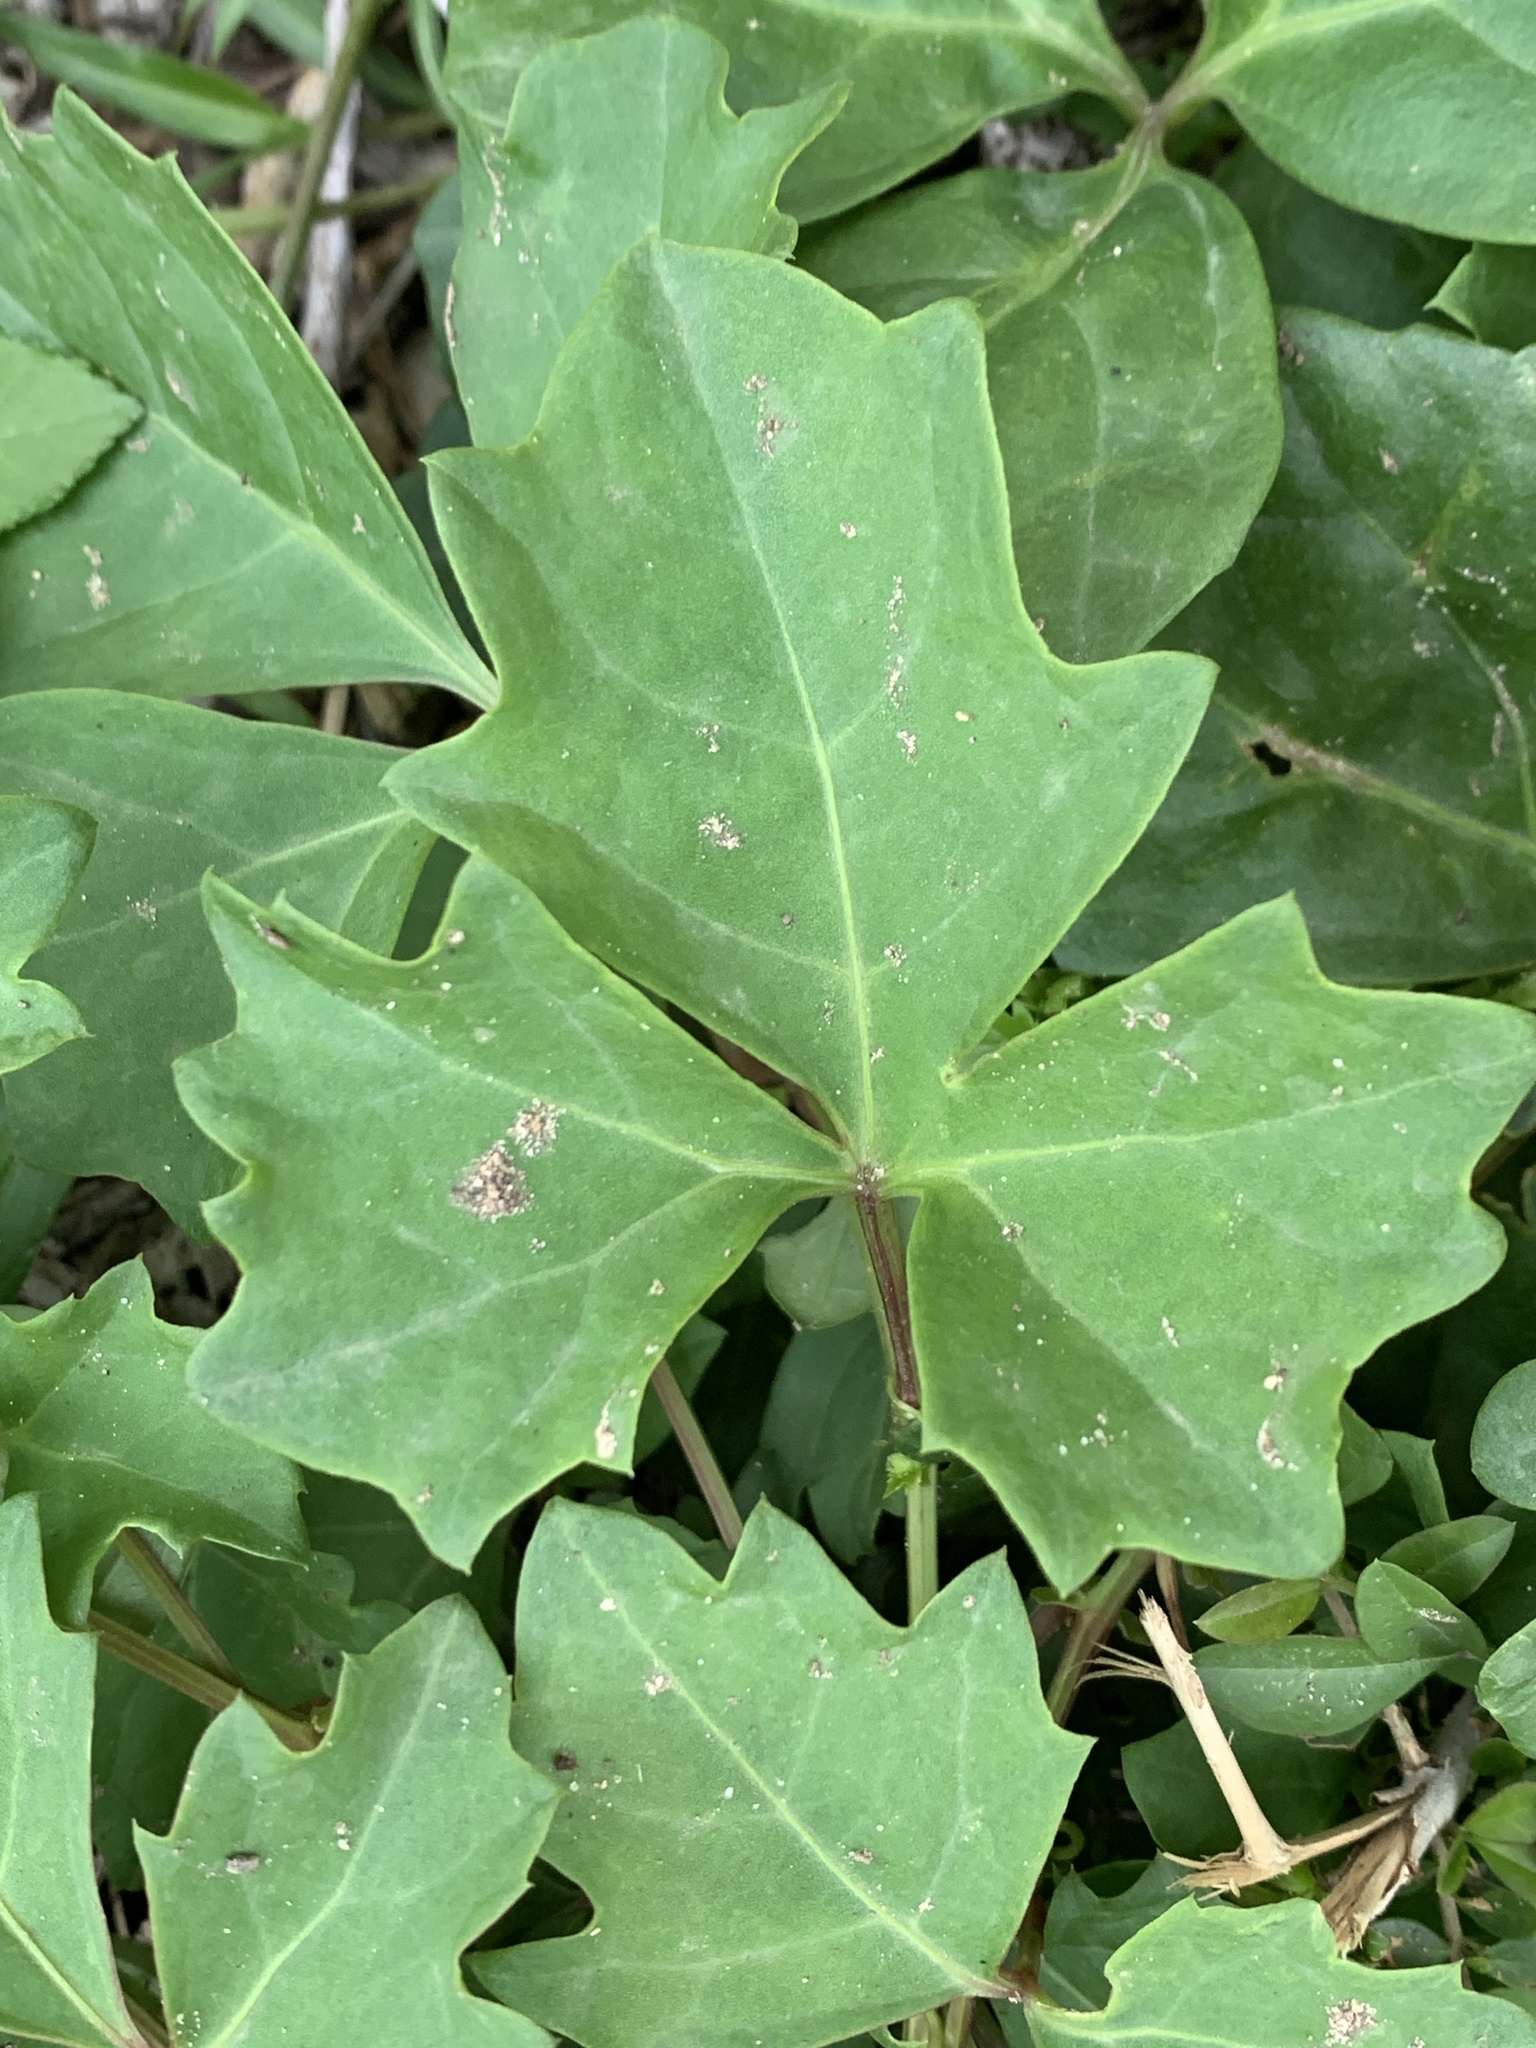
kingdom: Plantae
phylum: Tracheophyta
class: Magnoliopsida
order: Vitales
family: Vitaceae
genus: Cissus
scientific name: Cissus trifoliata
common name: Vine-sorrel
